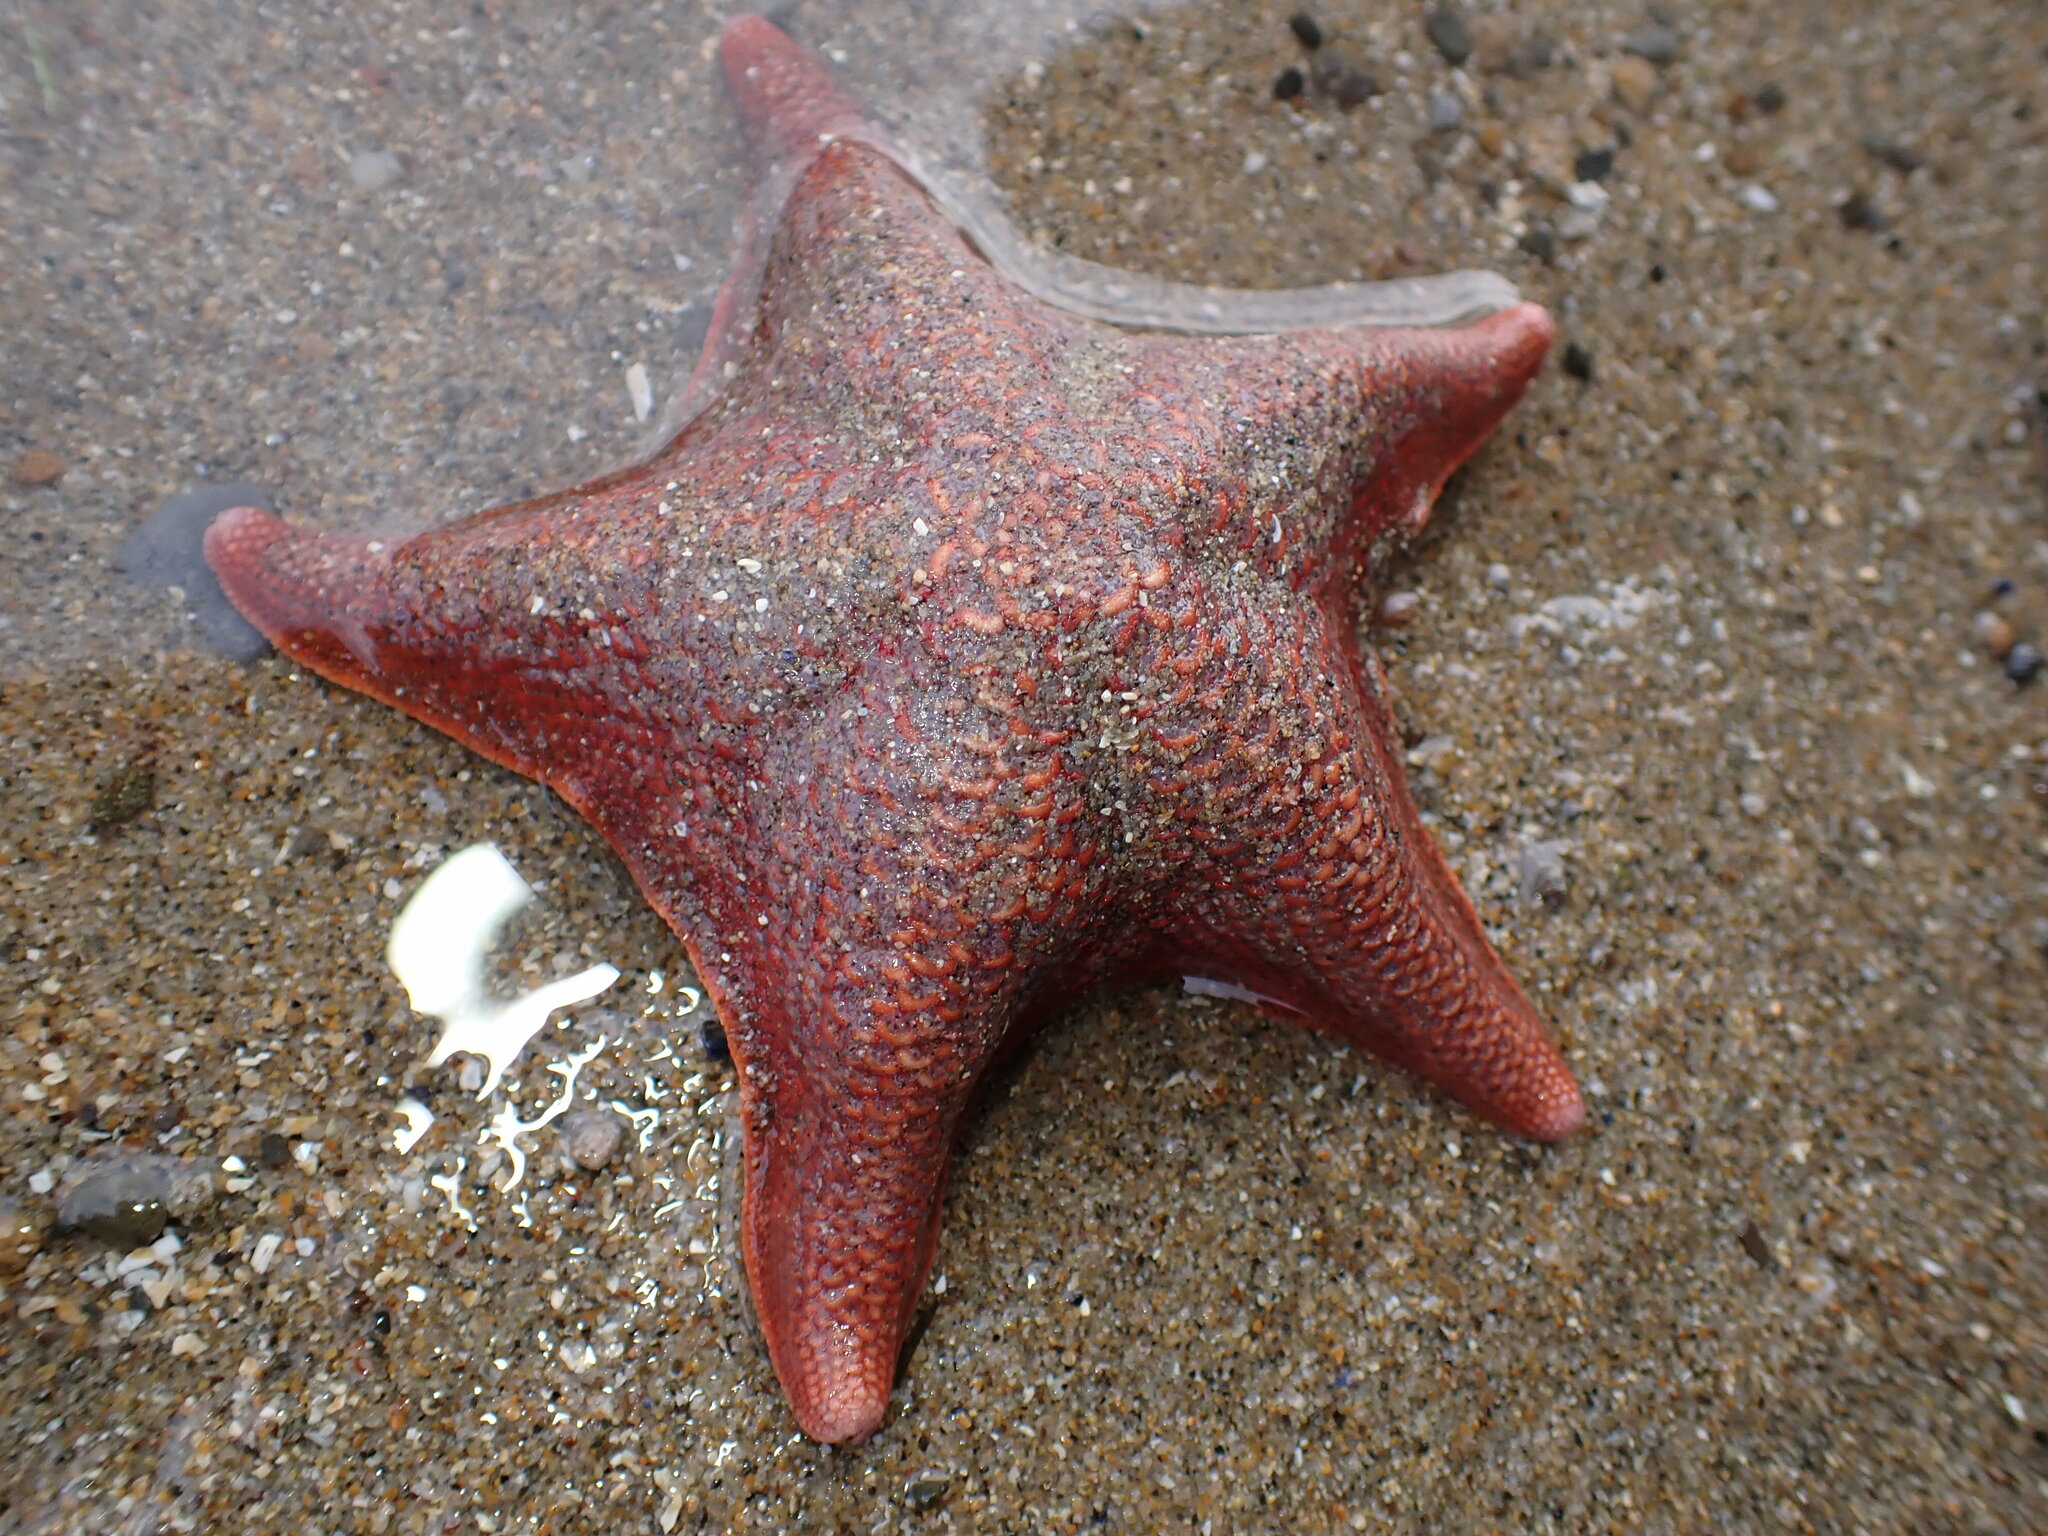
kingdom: Animalia
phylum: Echinodermata
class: Asteroidea
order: Valvatida
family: Asterinidae
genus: Patiria
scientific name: Patiria miniata
